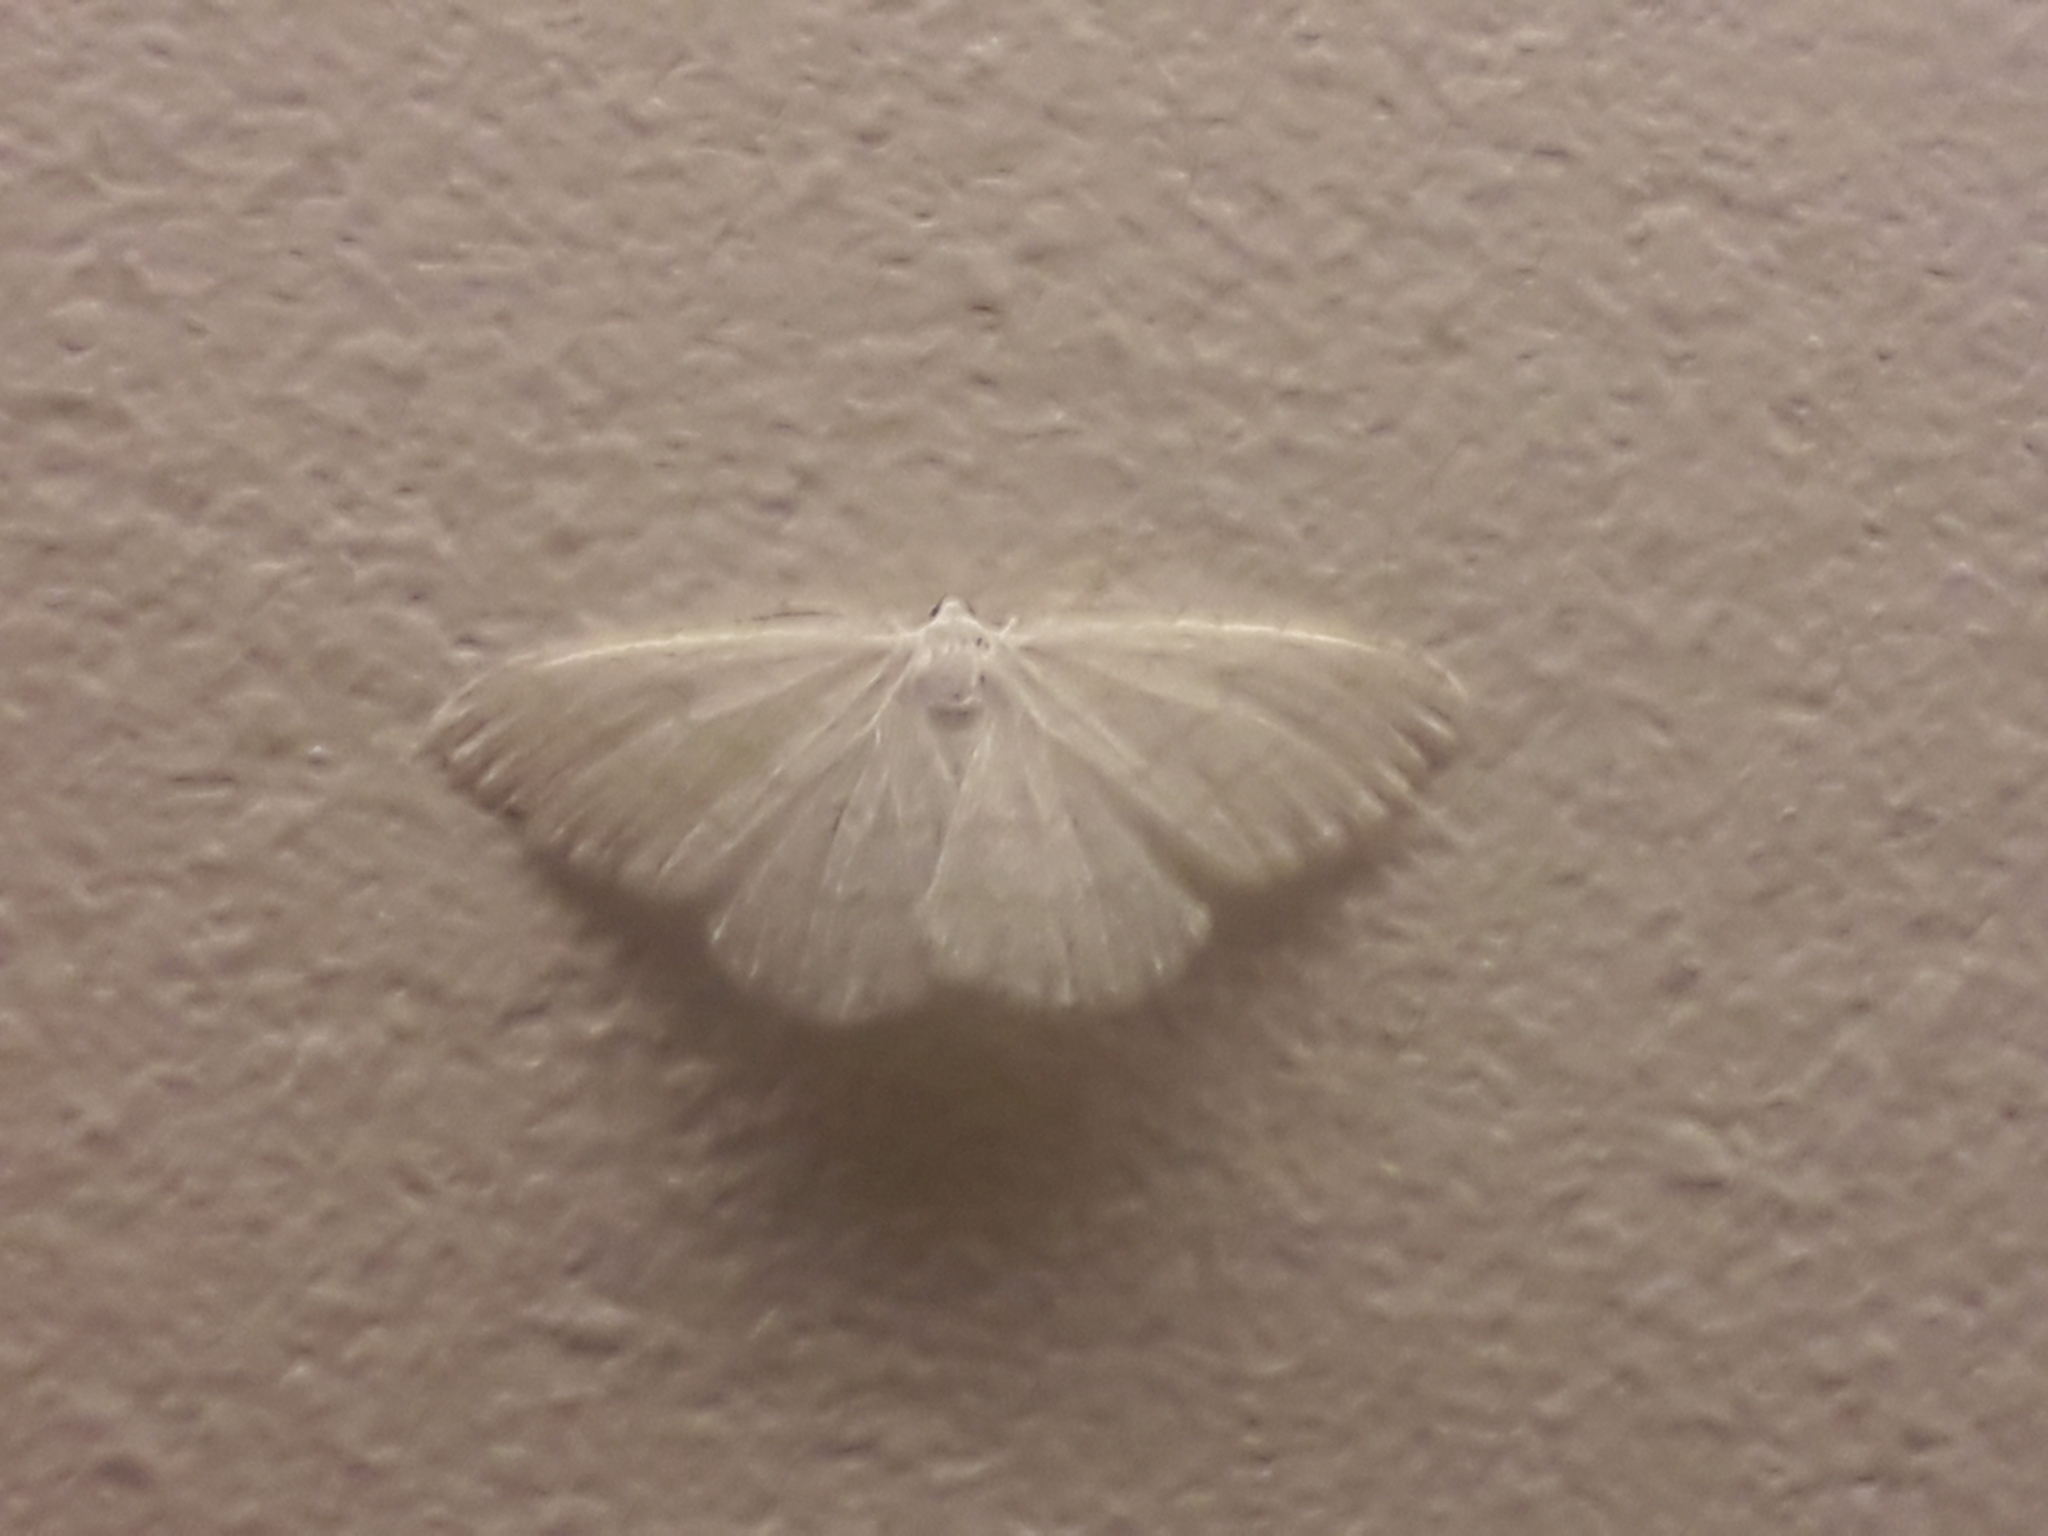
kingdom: Animalia
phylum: Arthropoda
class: Insecta
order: Lepidoptera
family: Geometridae
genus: Cabera
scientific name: Cabera pusaria
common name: Common white wave
